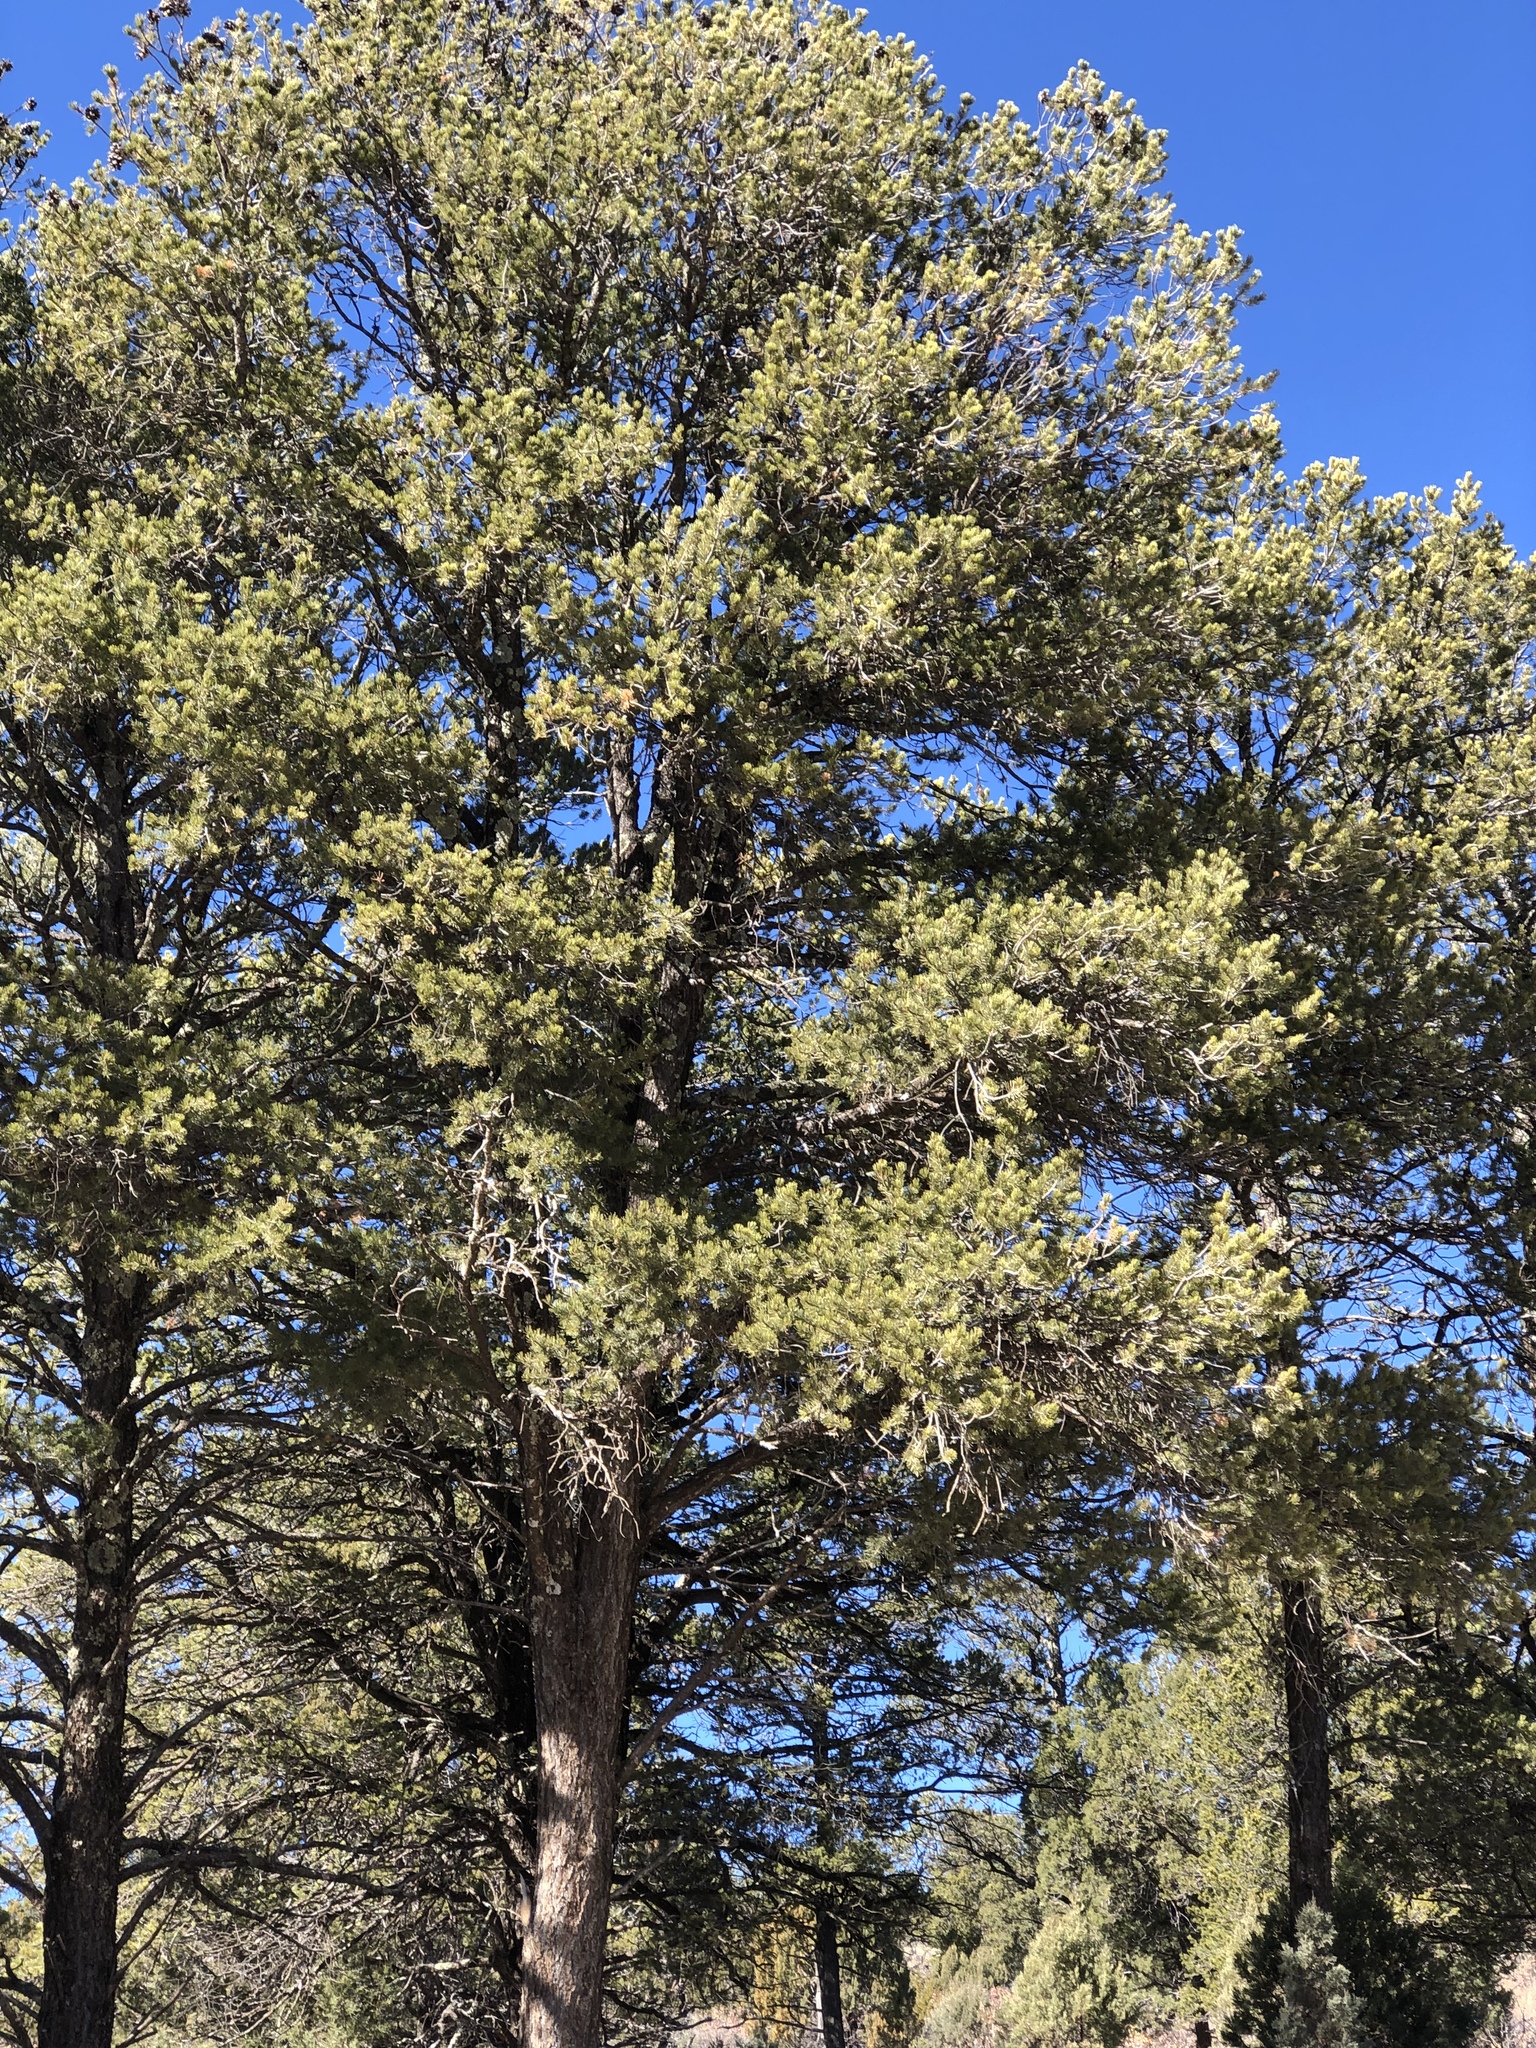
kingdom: Plantae
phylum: Tracheophyta
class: Pinopsida
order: Pinales
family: Pinaceae
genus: Pinus
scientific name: Pinus edulis
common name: Colorado pinyon
